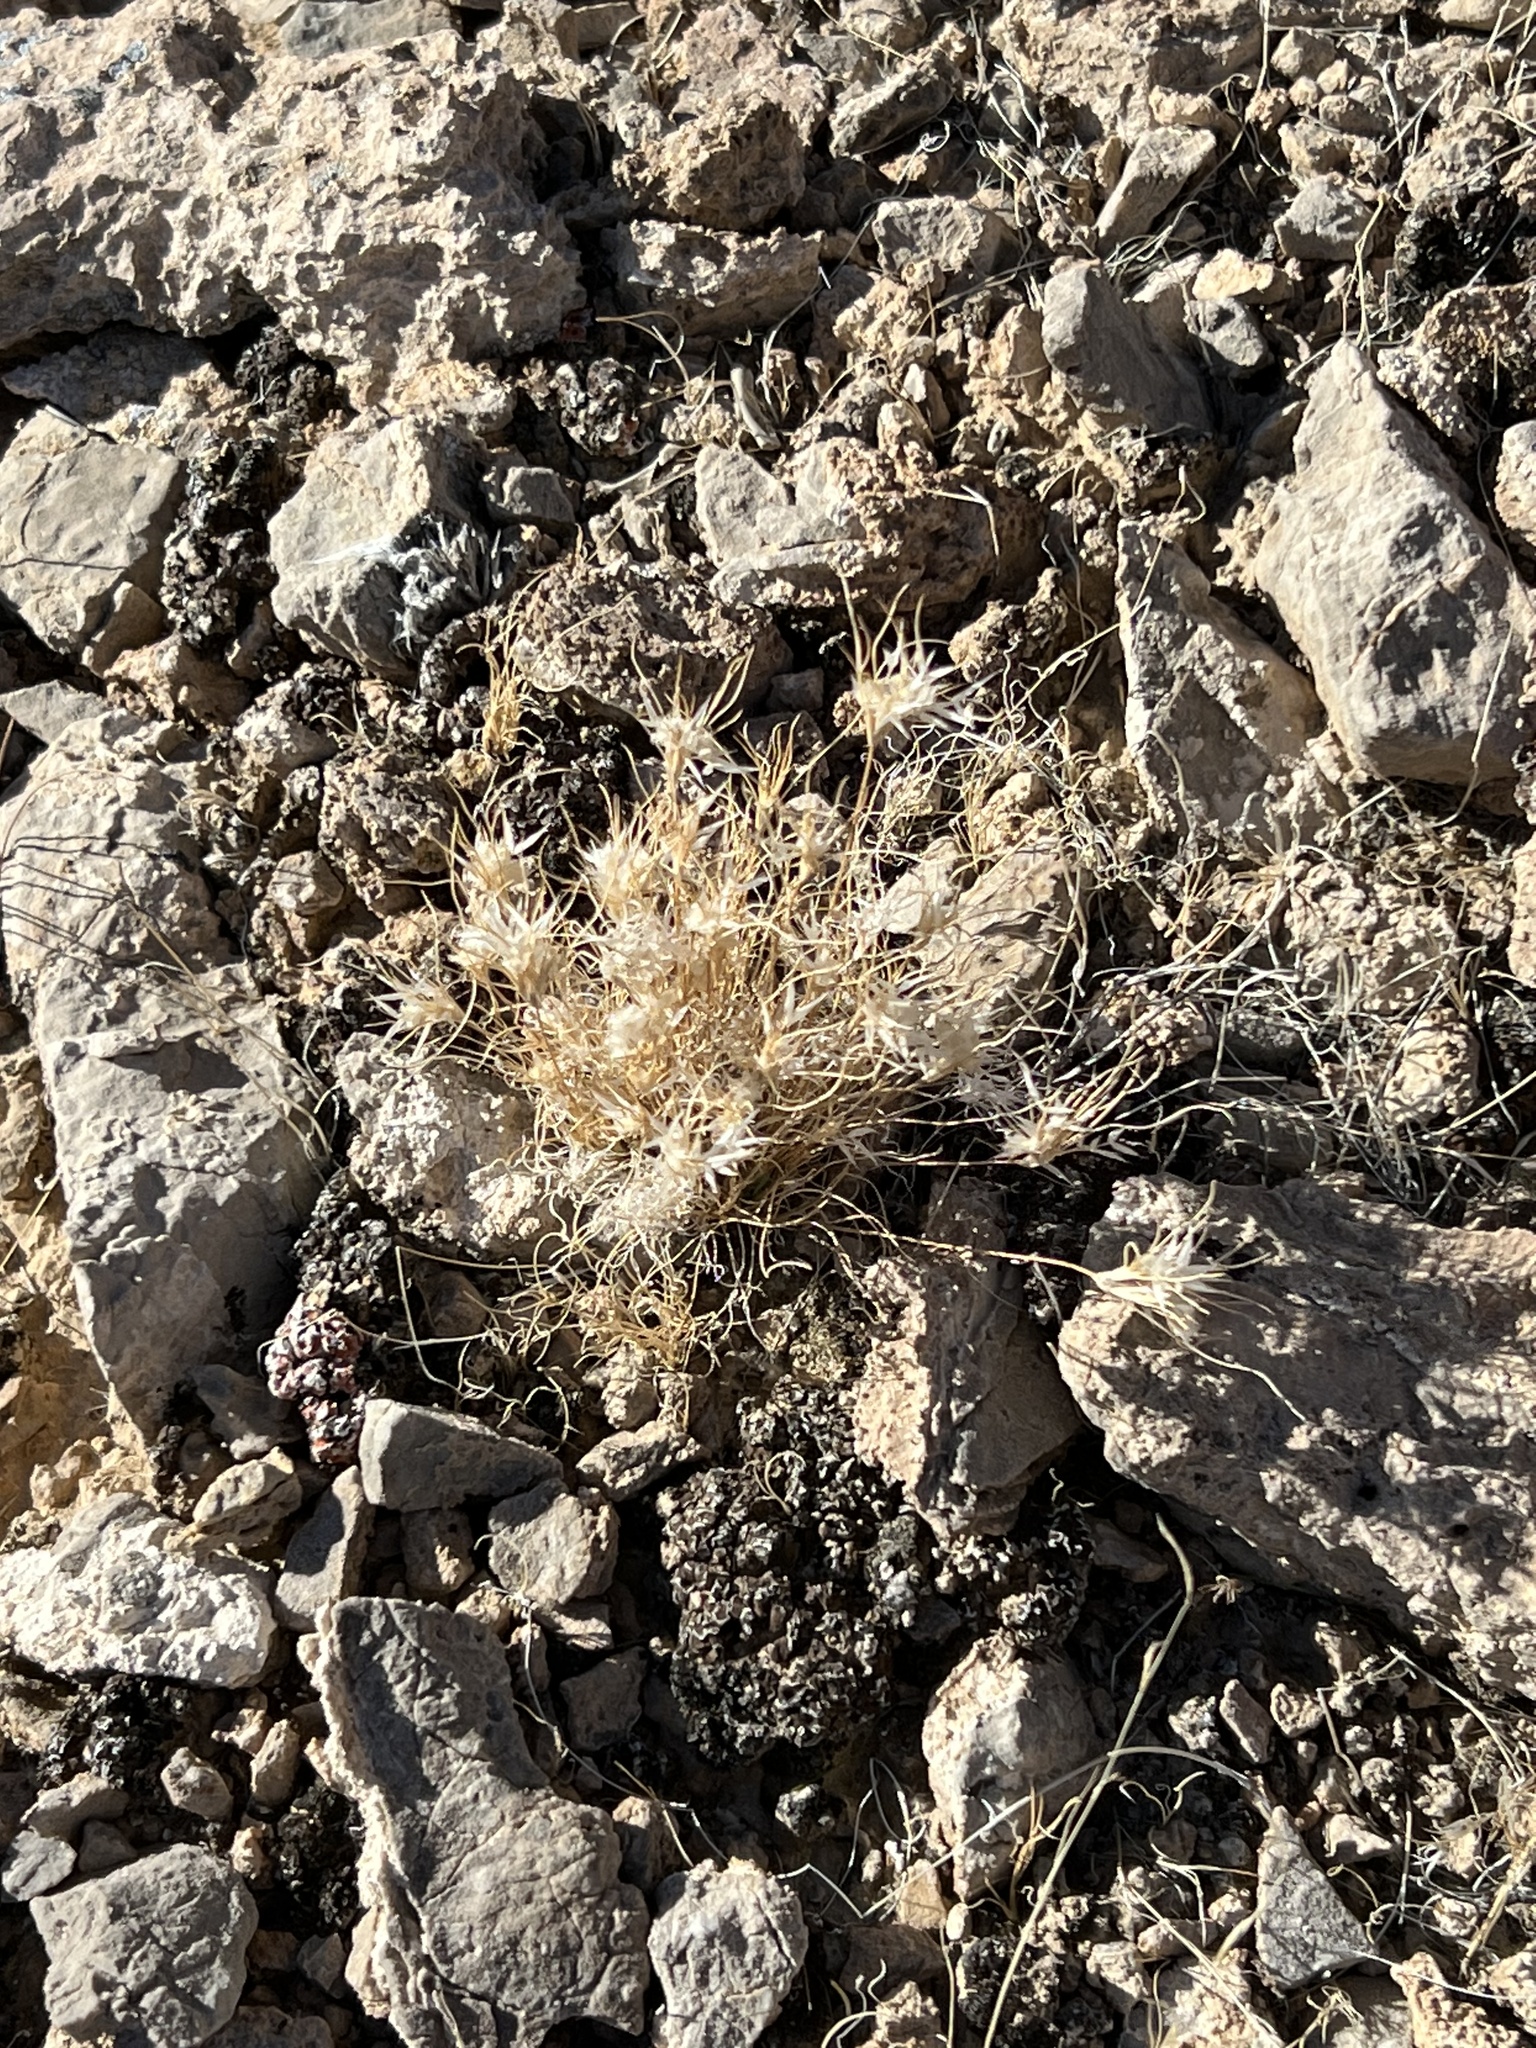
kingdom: Plantae
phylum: Tracheophyta
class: Liliopsida
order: Poales
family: Poaceae
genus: Dasyochloa
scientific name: Dasyochloa pulchella
